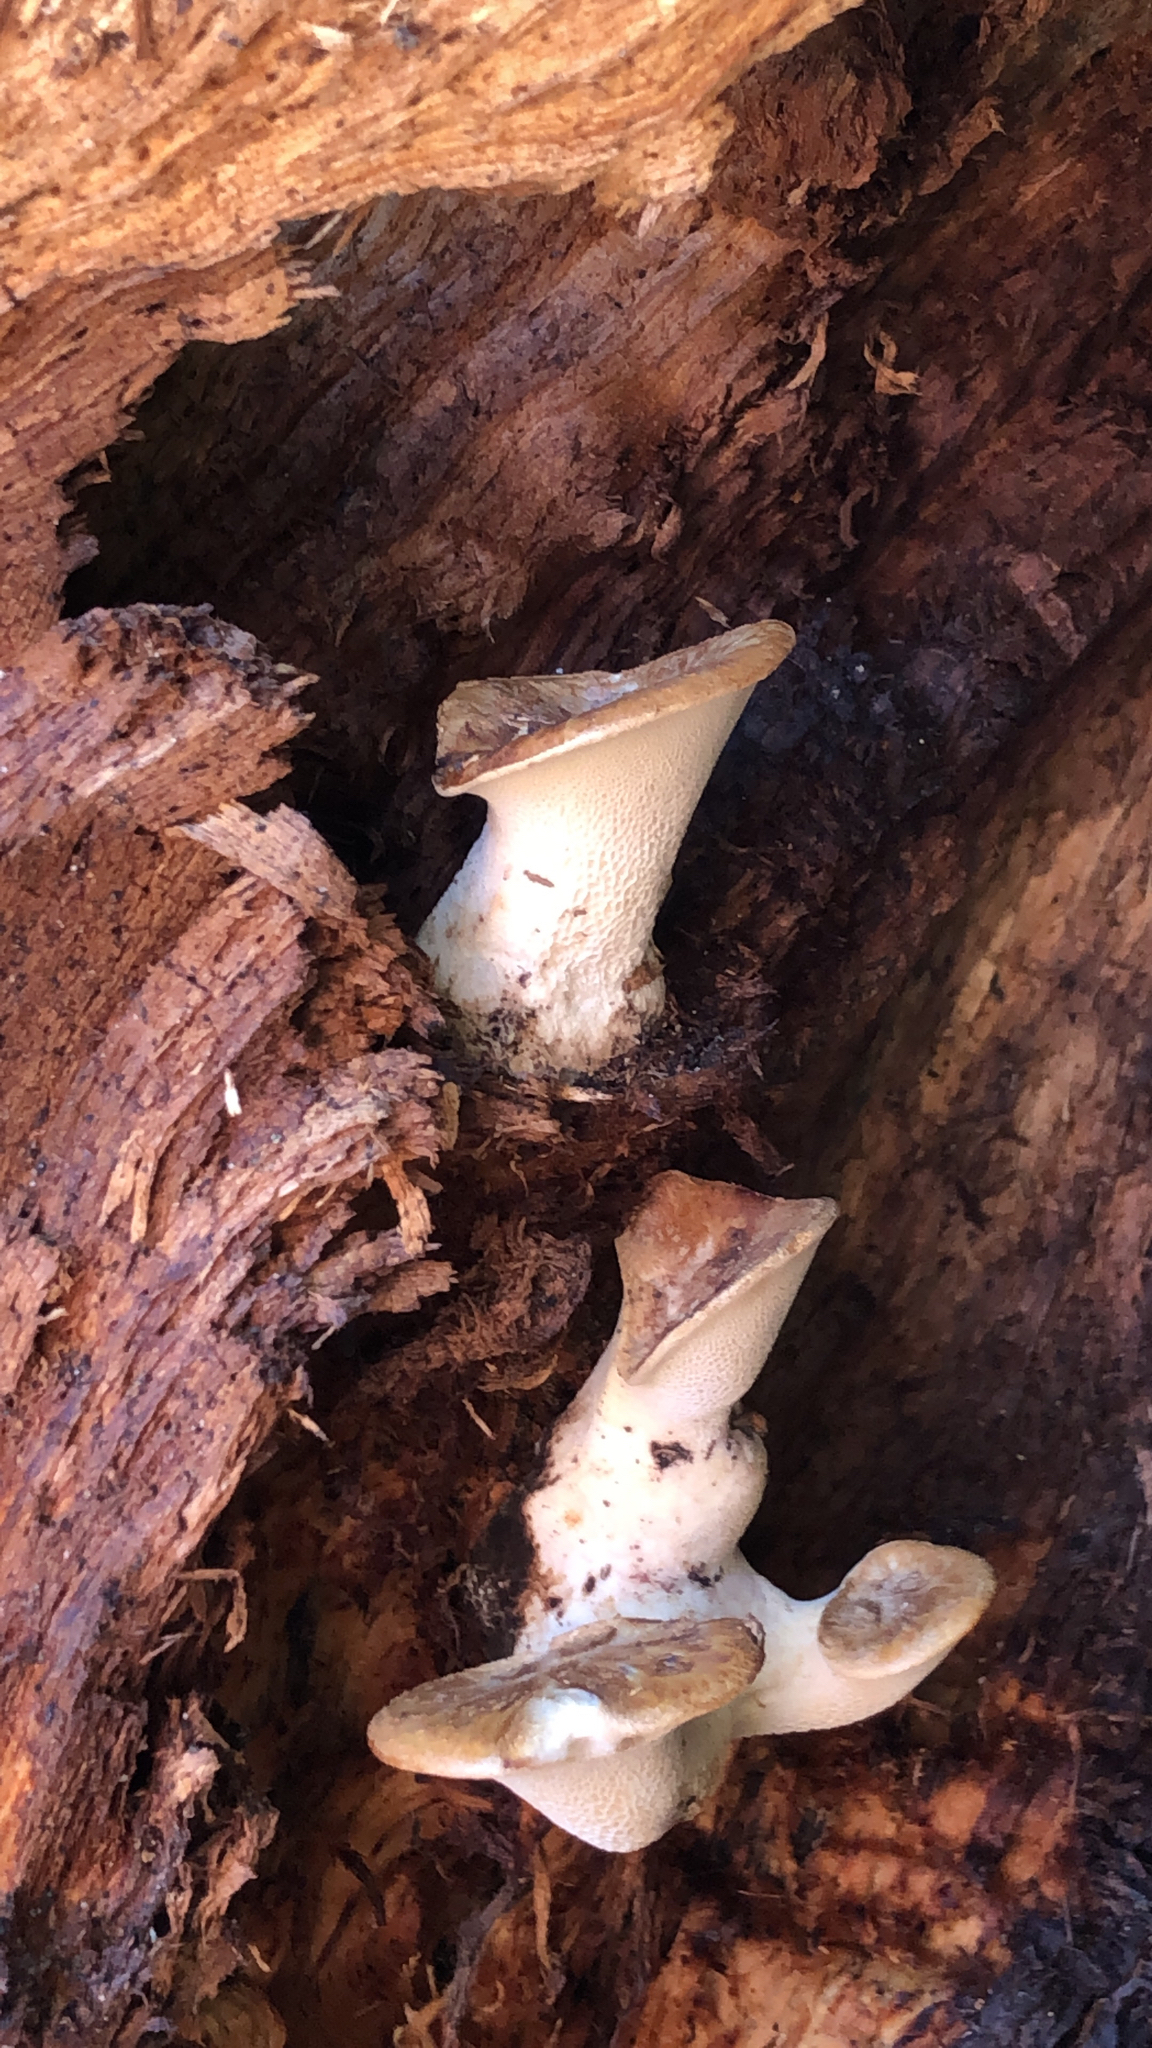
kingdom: Fungi
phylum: Basidiomycota
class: Agaricomycetes
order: Polyporales
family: Polyporaceae
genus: Cerioporus
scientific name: Cerioporus squamosus
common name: Dryad's saddle
